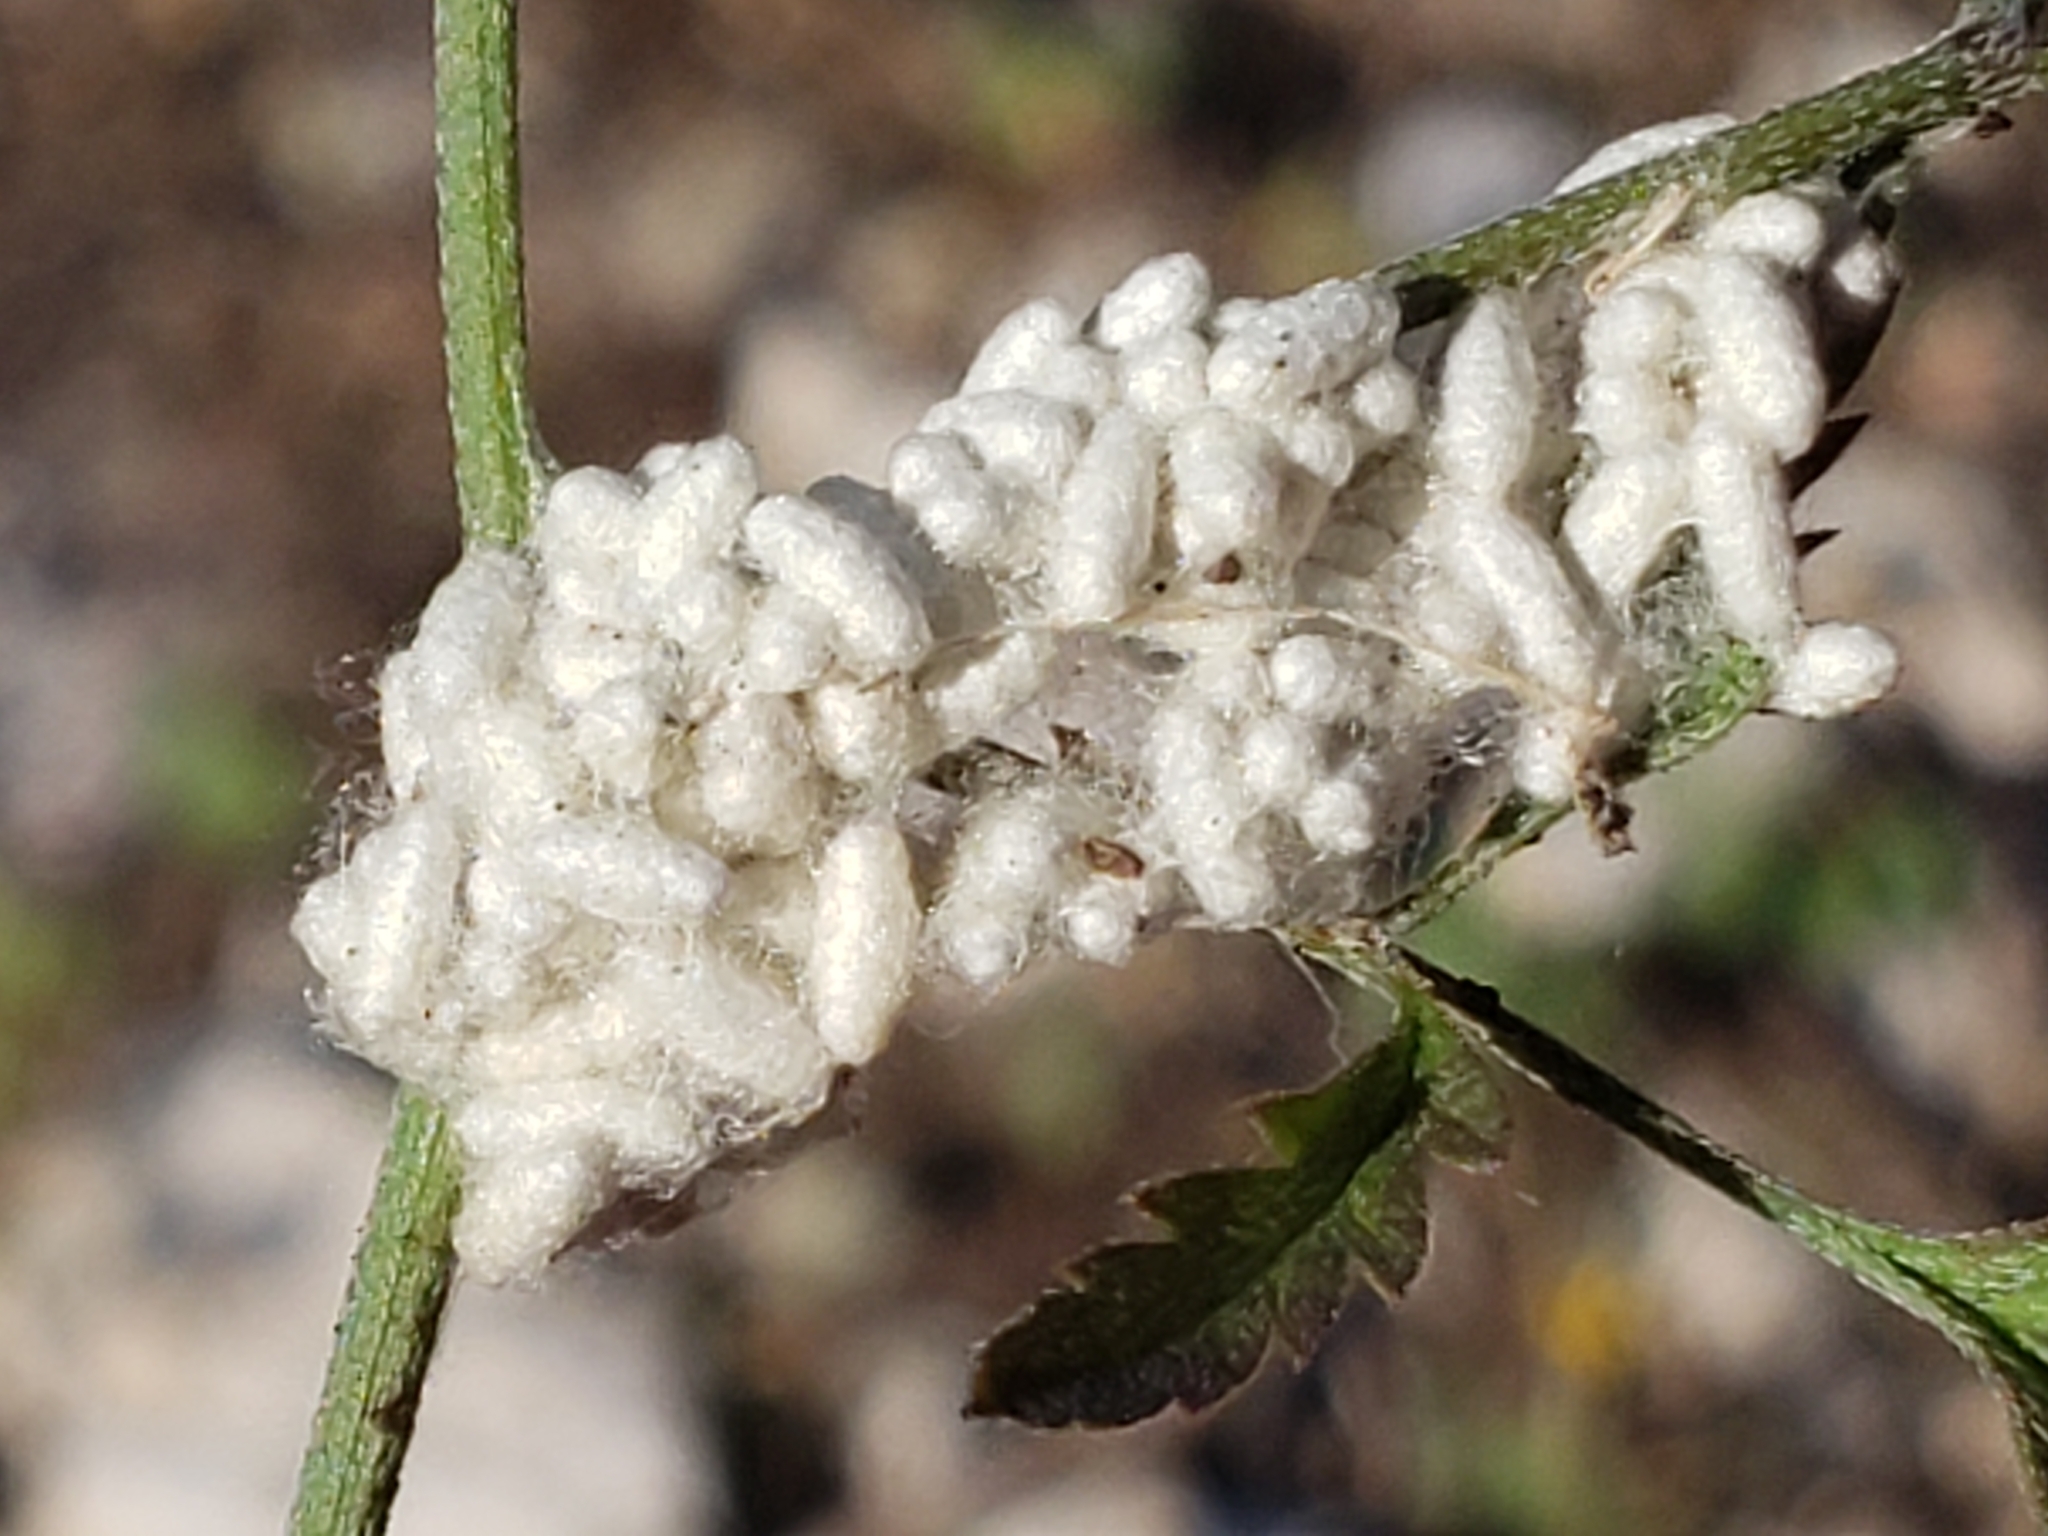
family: Polydnaviriformidae
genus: Bracoviriform
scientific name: Bracoviriform congregatae
